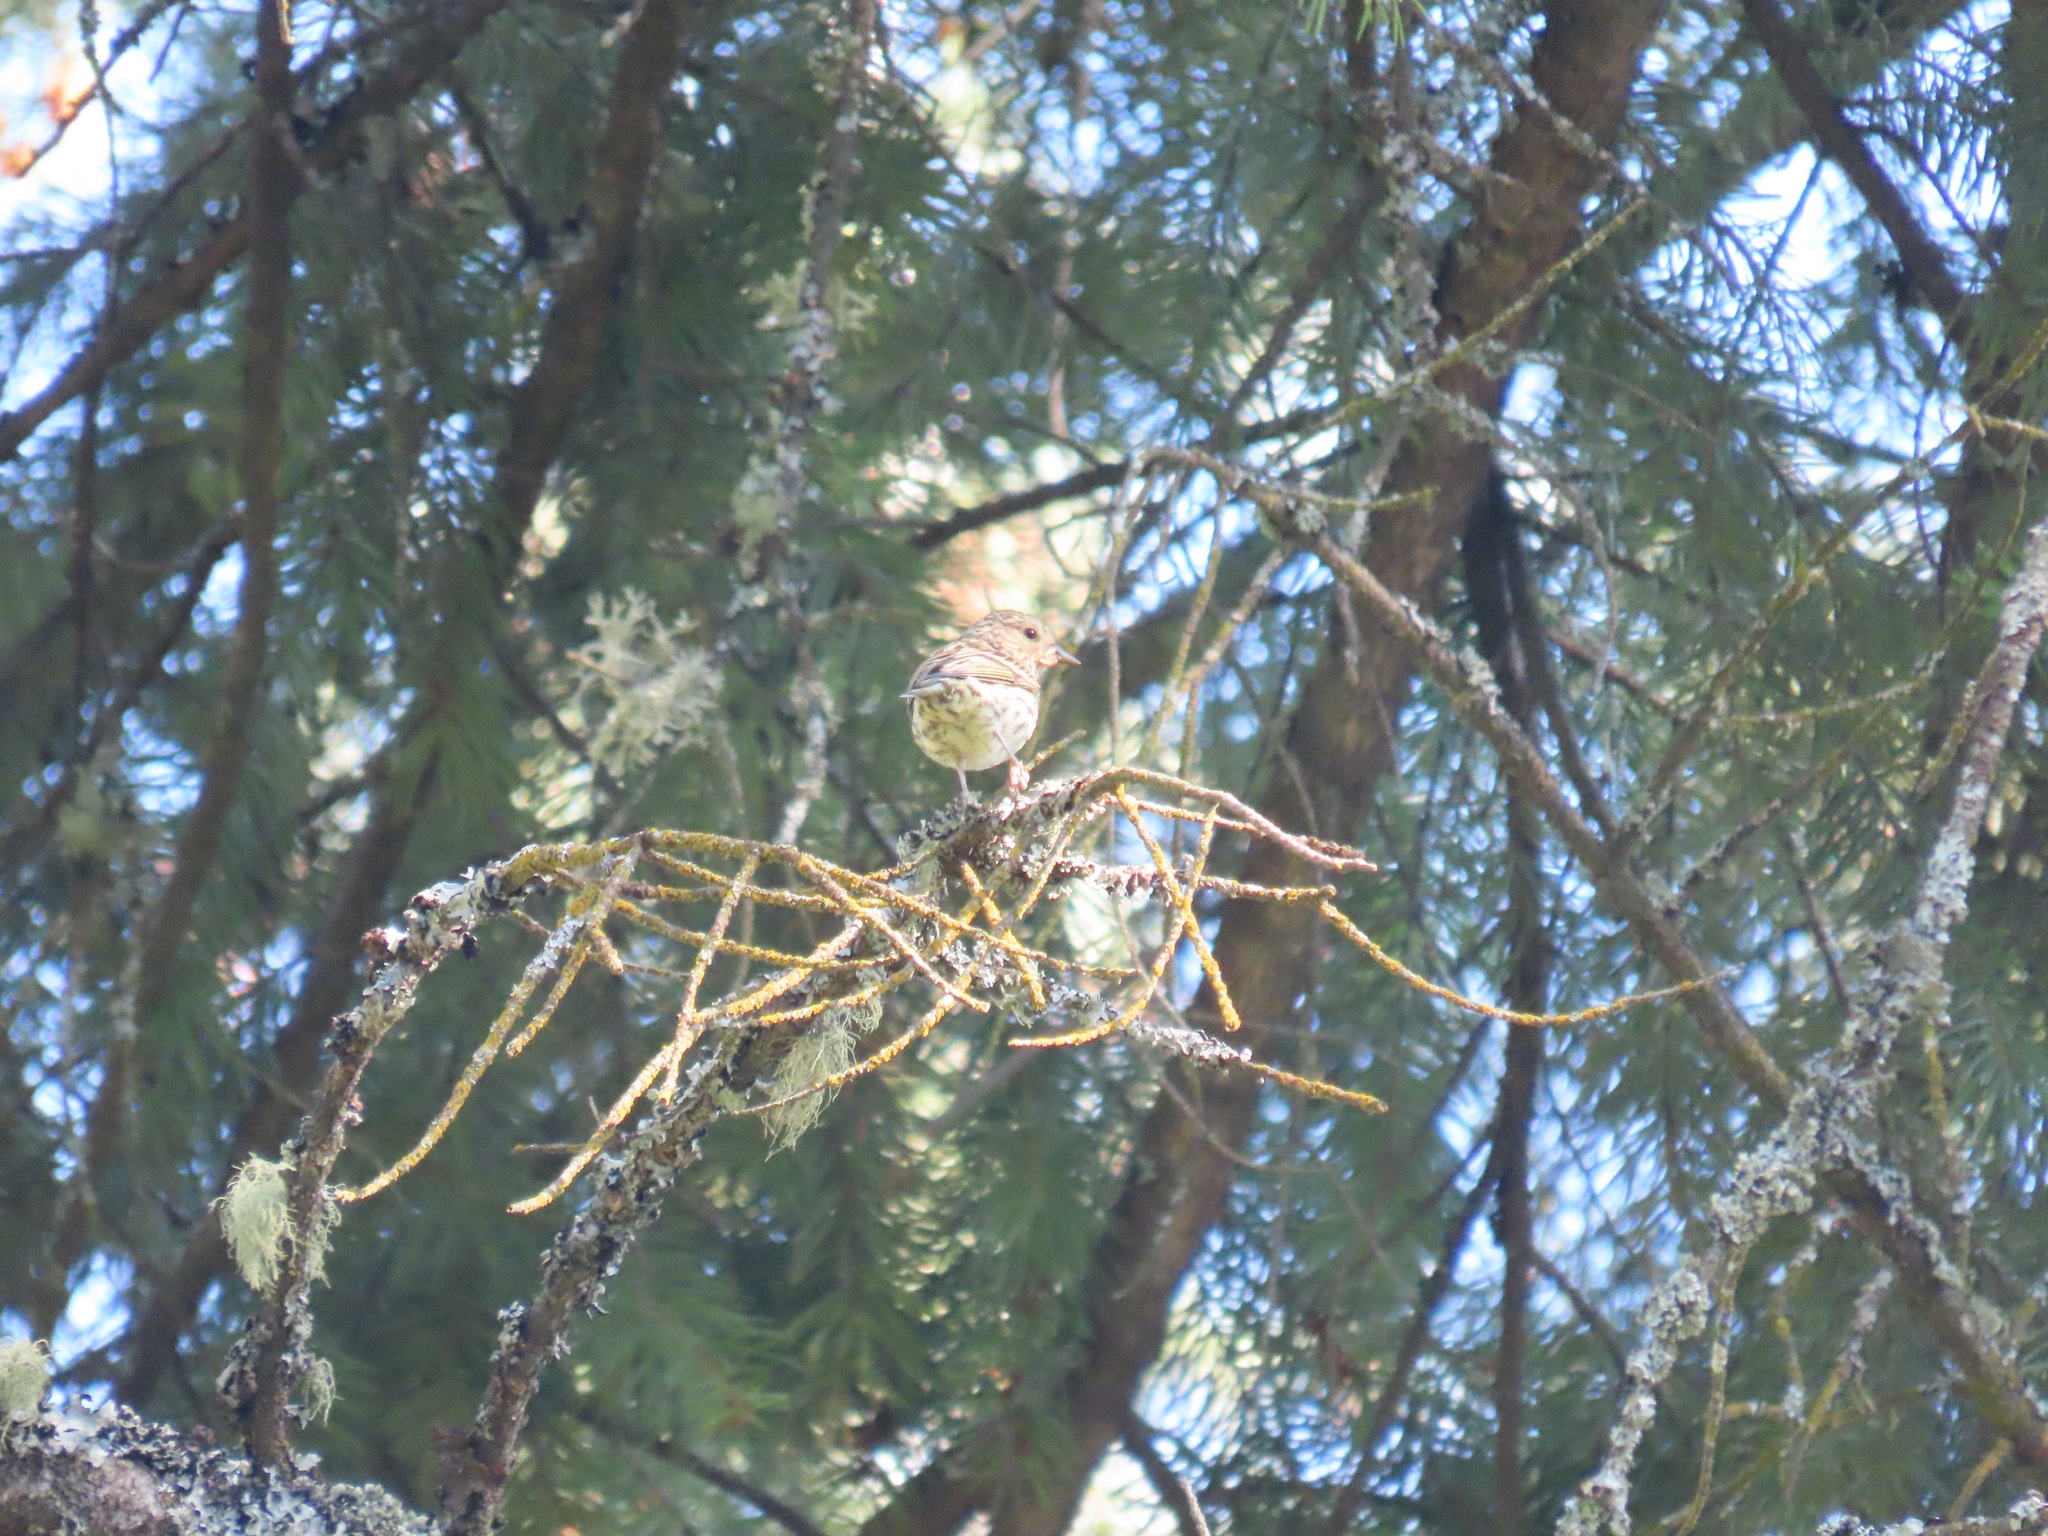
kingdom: Animalia
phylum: Chordata
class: Aves
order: Passeriformes
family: Fringillidae
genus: Spinus
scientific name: Spinus pinus
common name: Pine siskin
